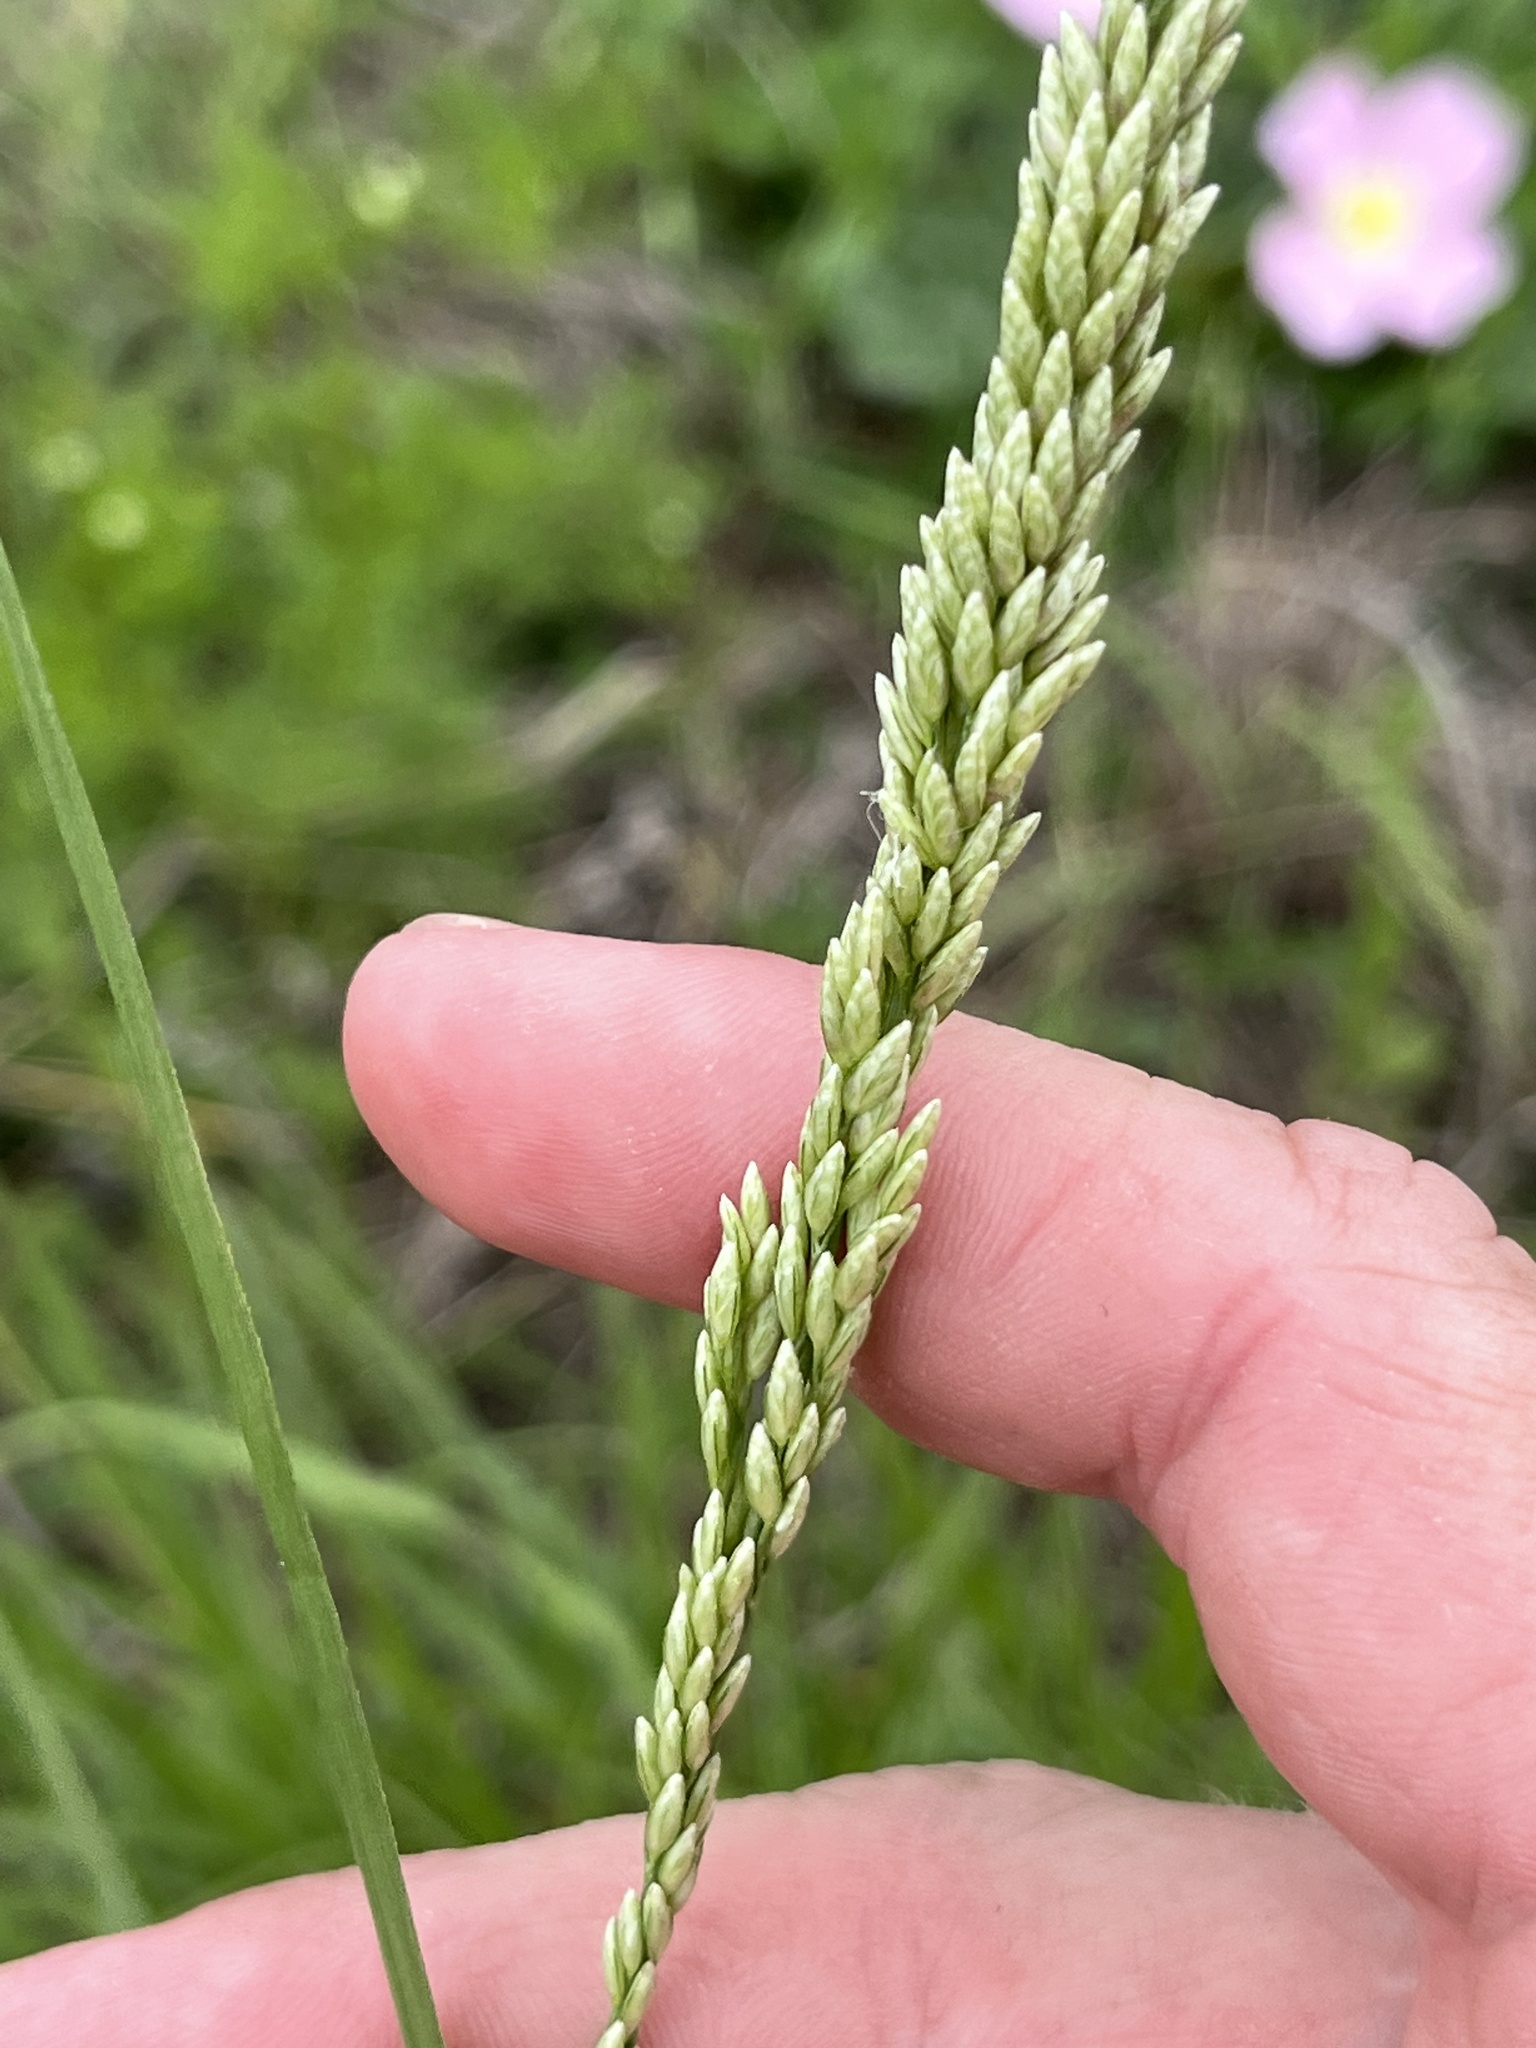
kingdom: Plantae
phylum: Tracheophyta
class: Liliopsida
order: Poales
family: Poaceae
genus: Tridens
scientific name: Tridens albescens
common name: White tridens
